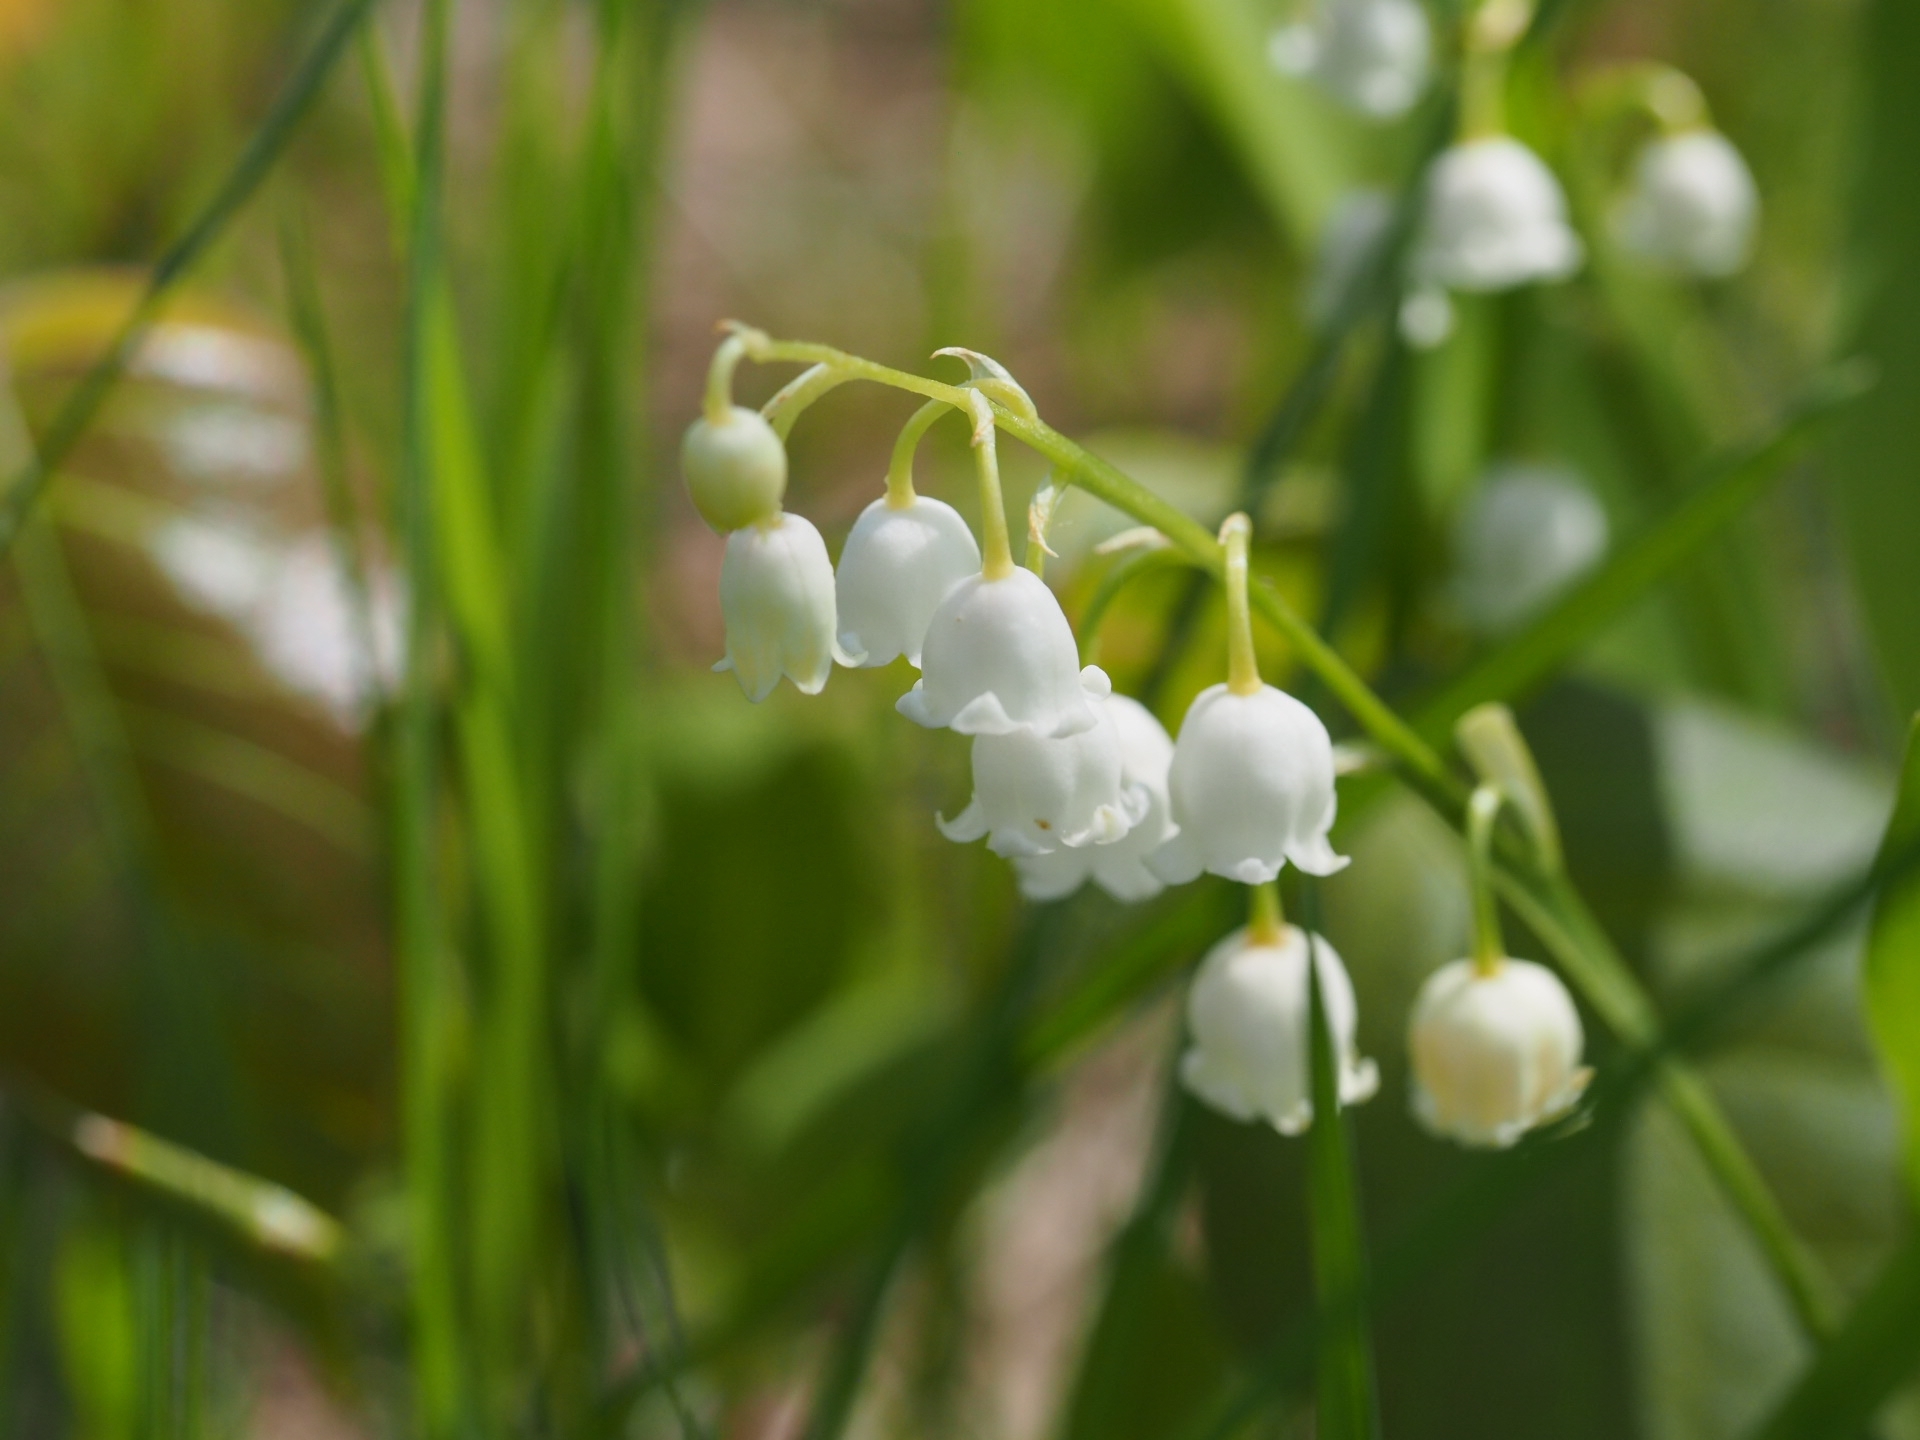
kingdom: Plantae
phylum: Tracheophyta
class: Liliopsida
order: Asparagales
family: Asparagaceae
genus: Convallaria
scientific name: Convallaria majalis
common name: Lily-of-the-valley
